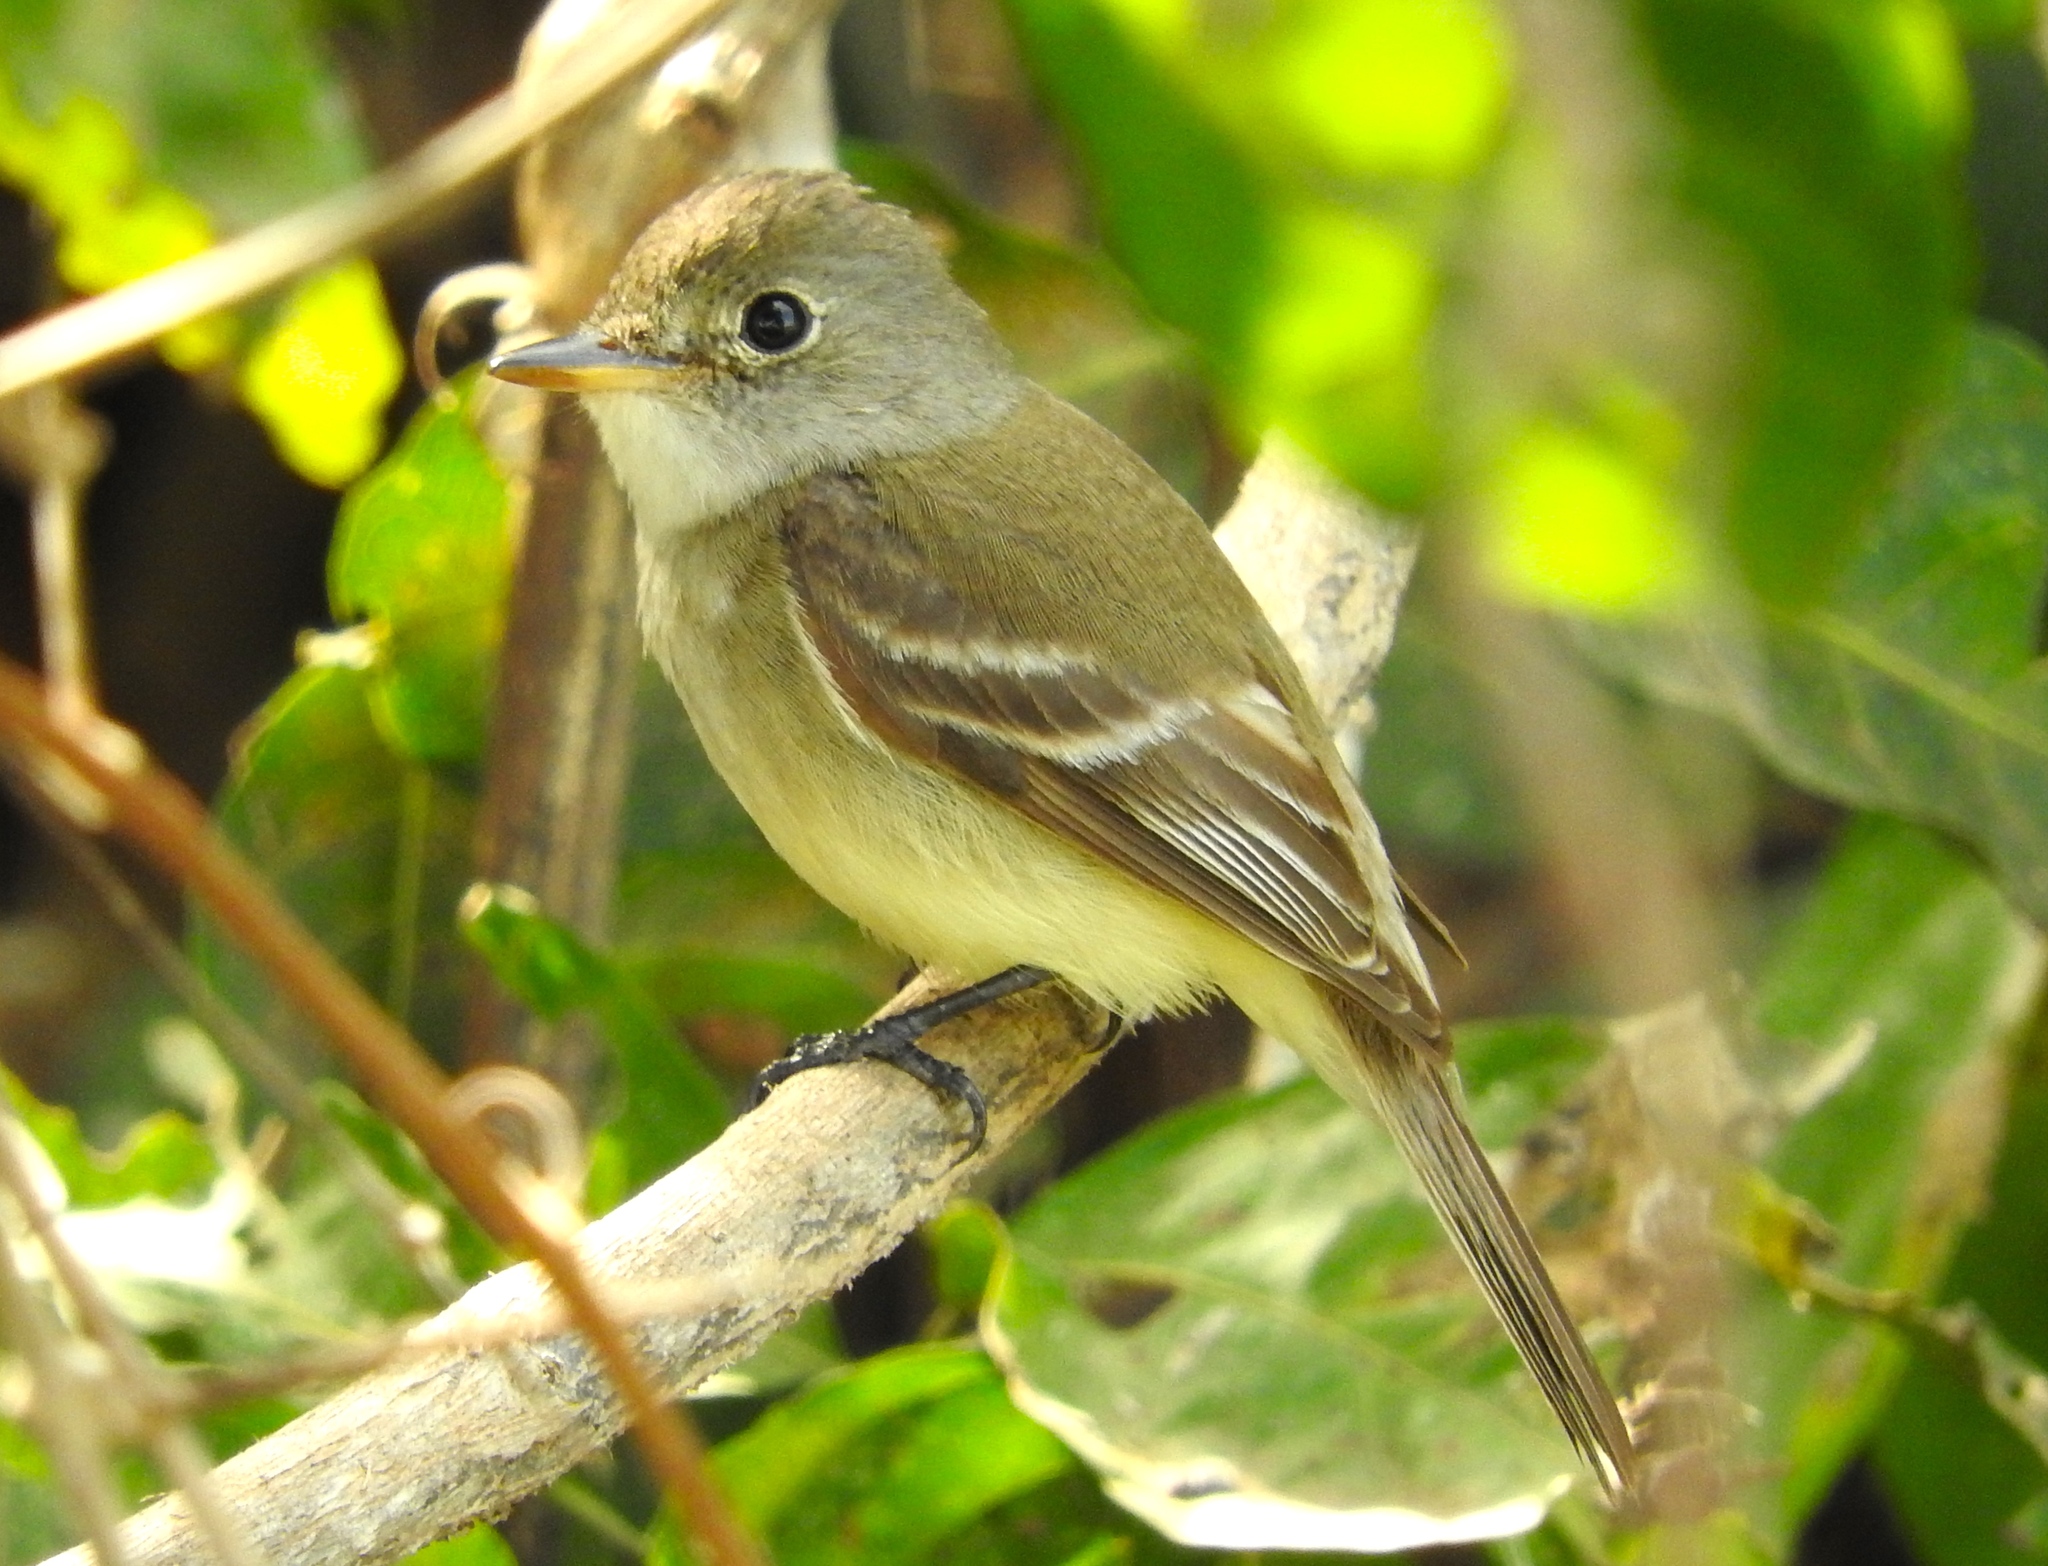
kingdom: Animalia
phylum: Chordata
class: Aves
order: Passeriformes
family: Tyrannidae
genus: Empidonax
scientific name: Empidonax
